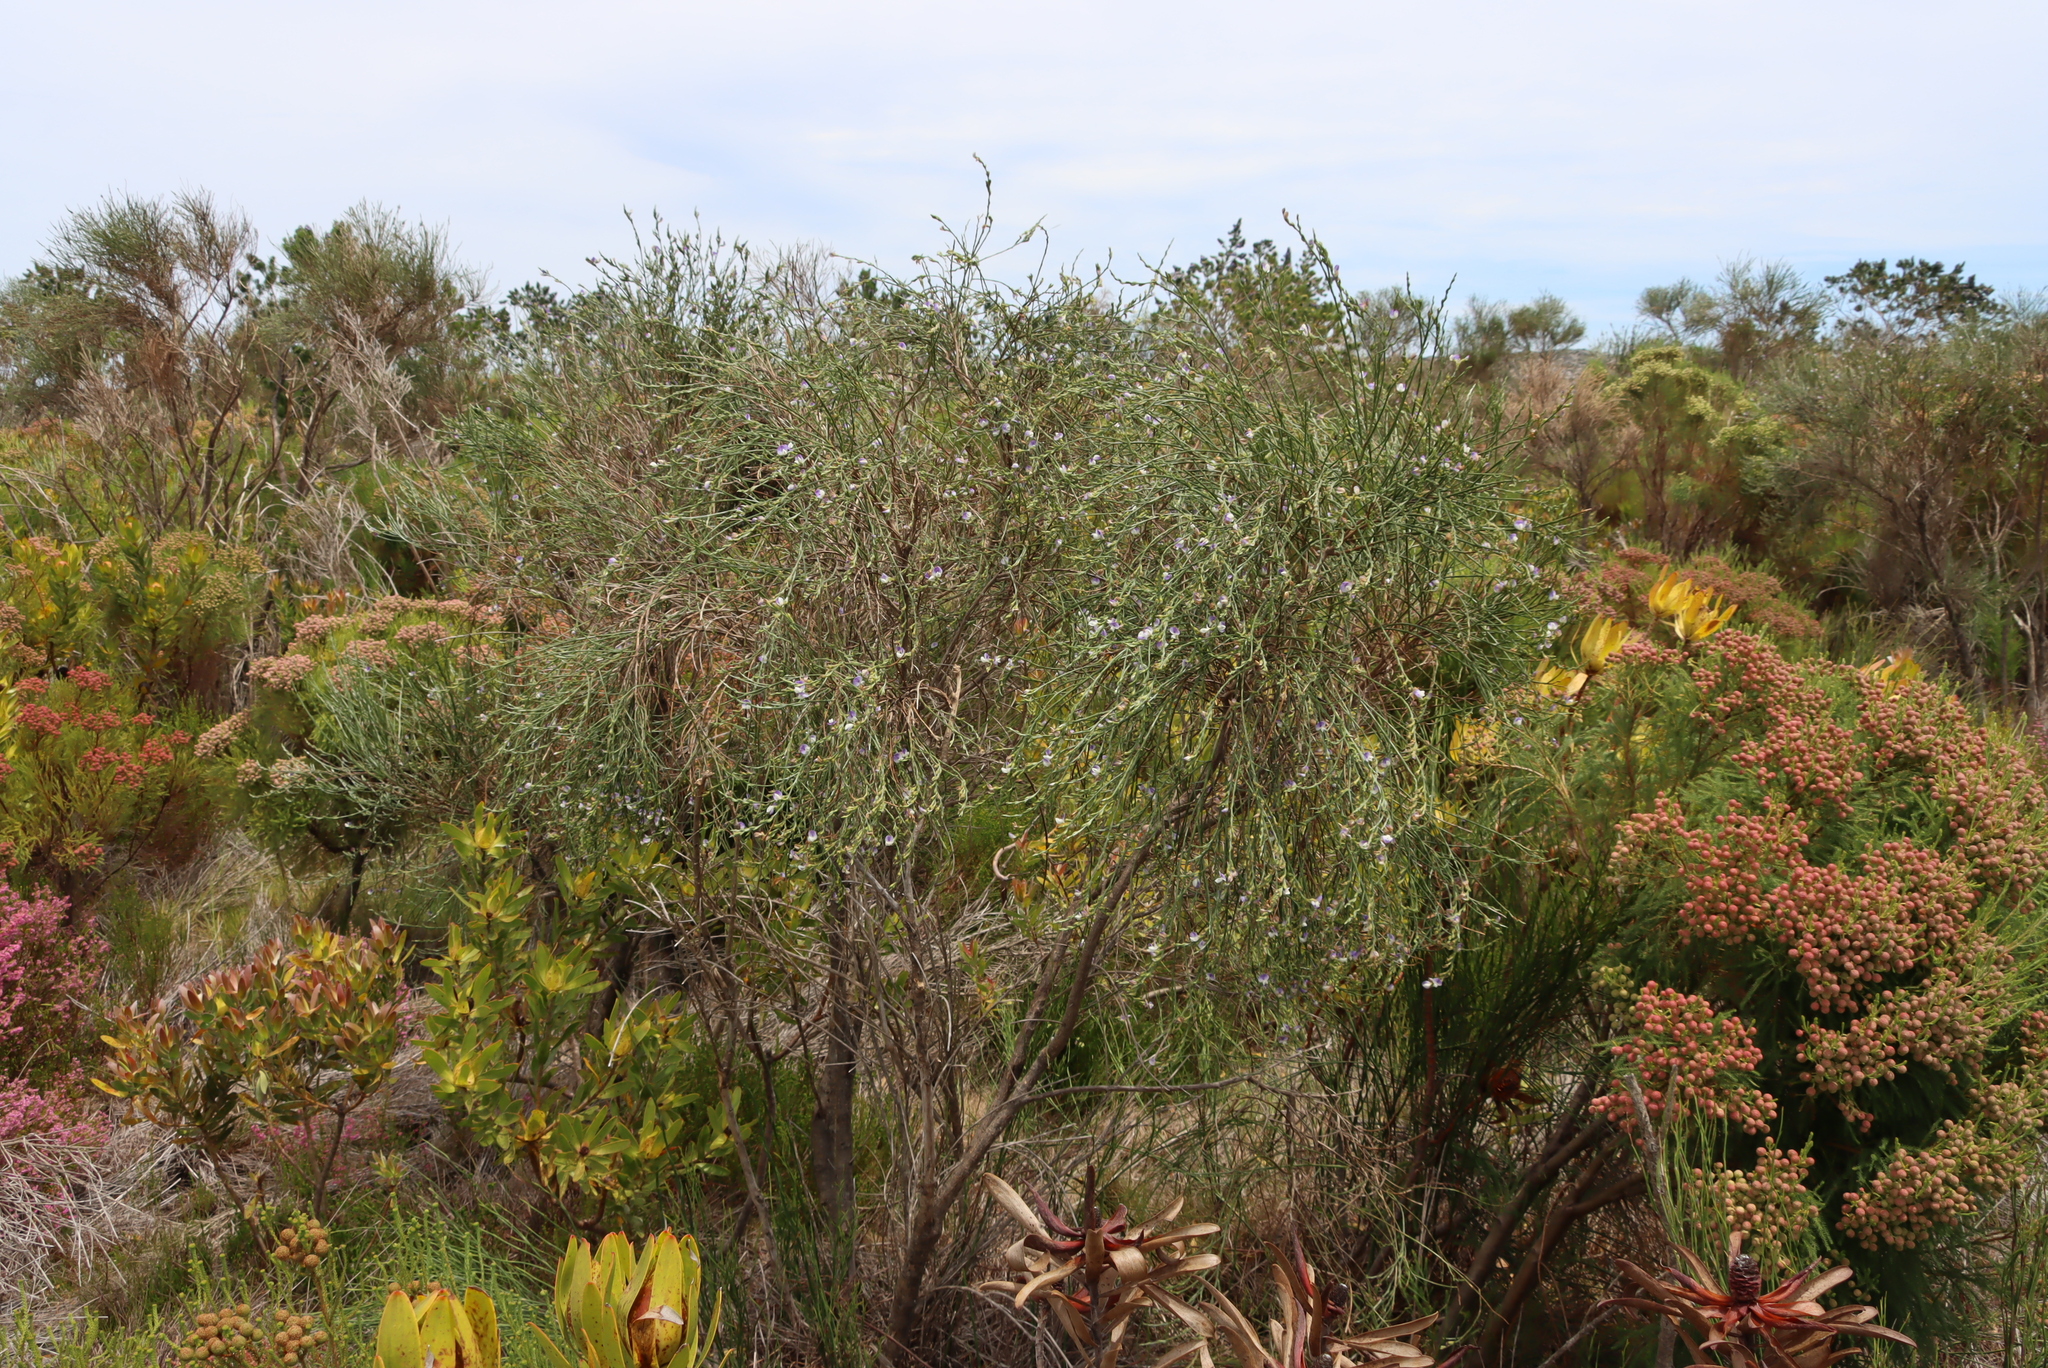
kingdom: Plantae
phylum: Tracheophyta
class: Magnoliopsida
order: Fabales
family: Fabaceae
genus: Psoralea
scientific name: Psoralea congesta
